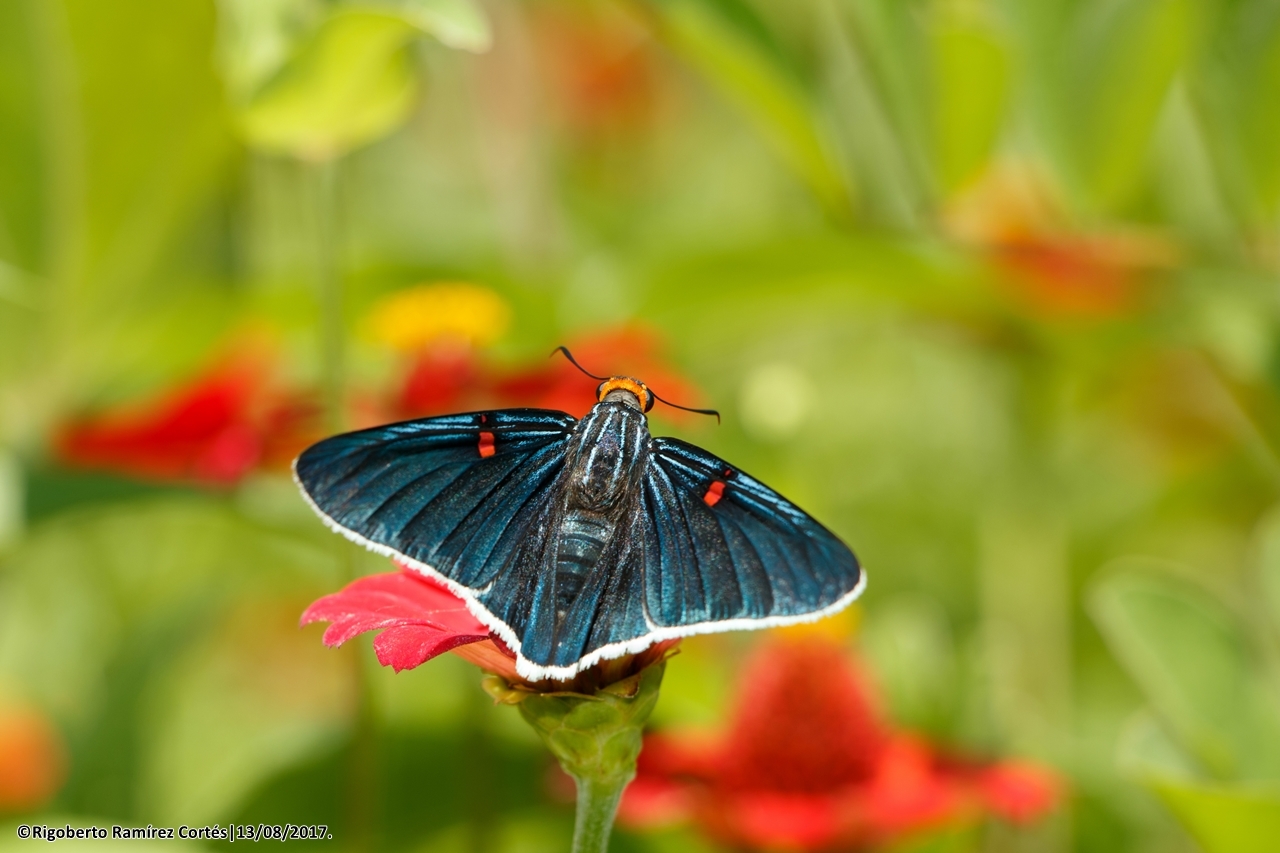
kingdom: Animalia
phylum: Arthropoda
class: Insecta
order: Lepidoptera
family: Hesperiidae
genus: Phocides
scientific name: Phocides lilea
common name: Guava skipper
